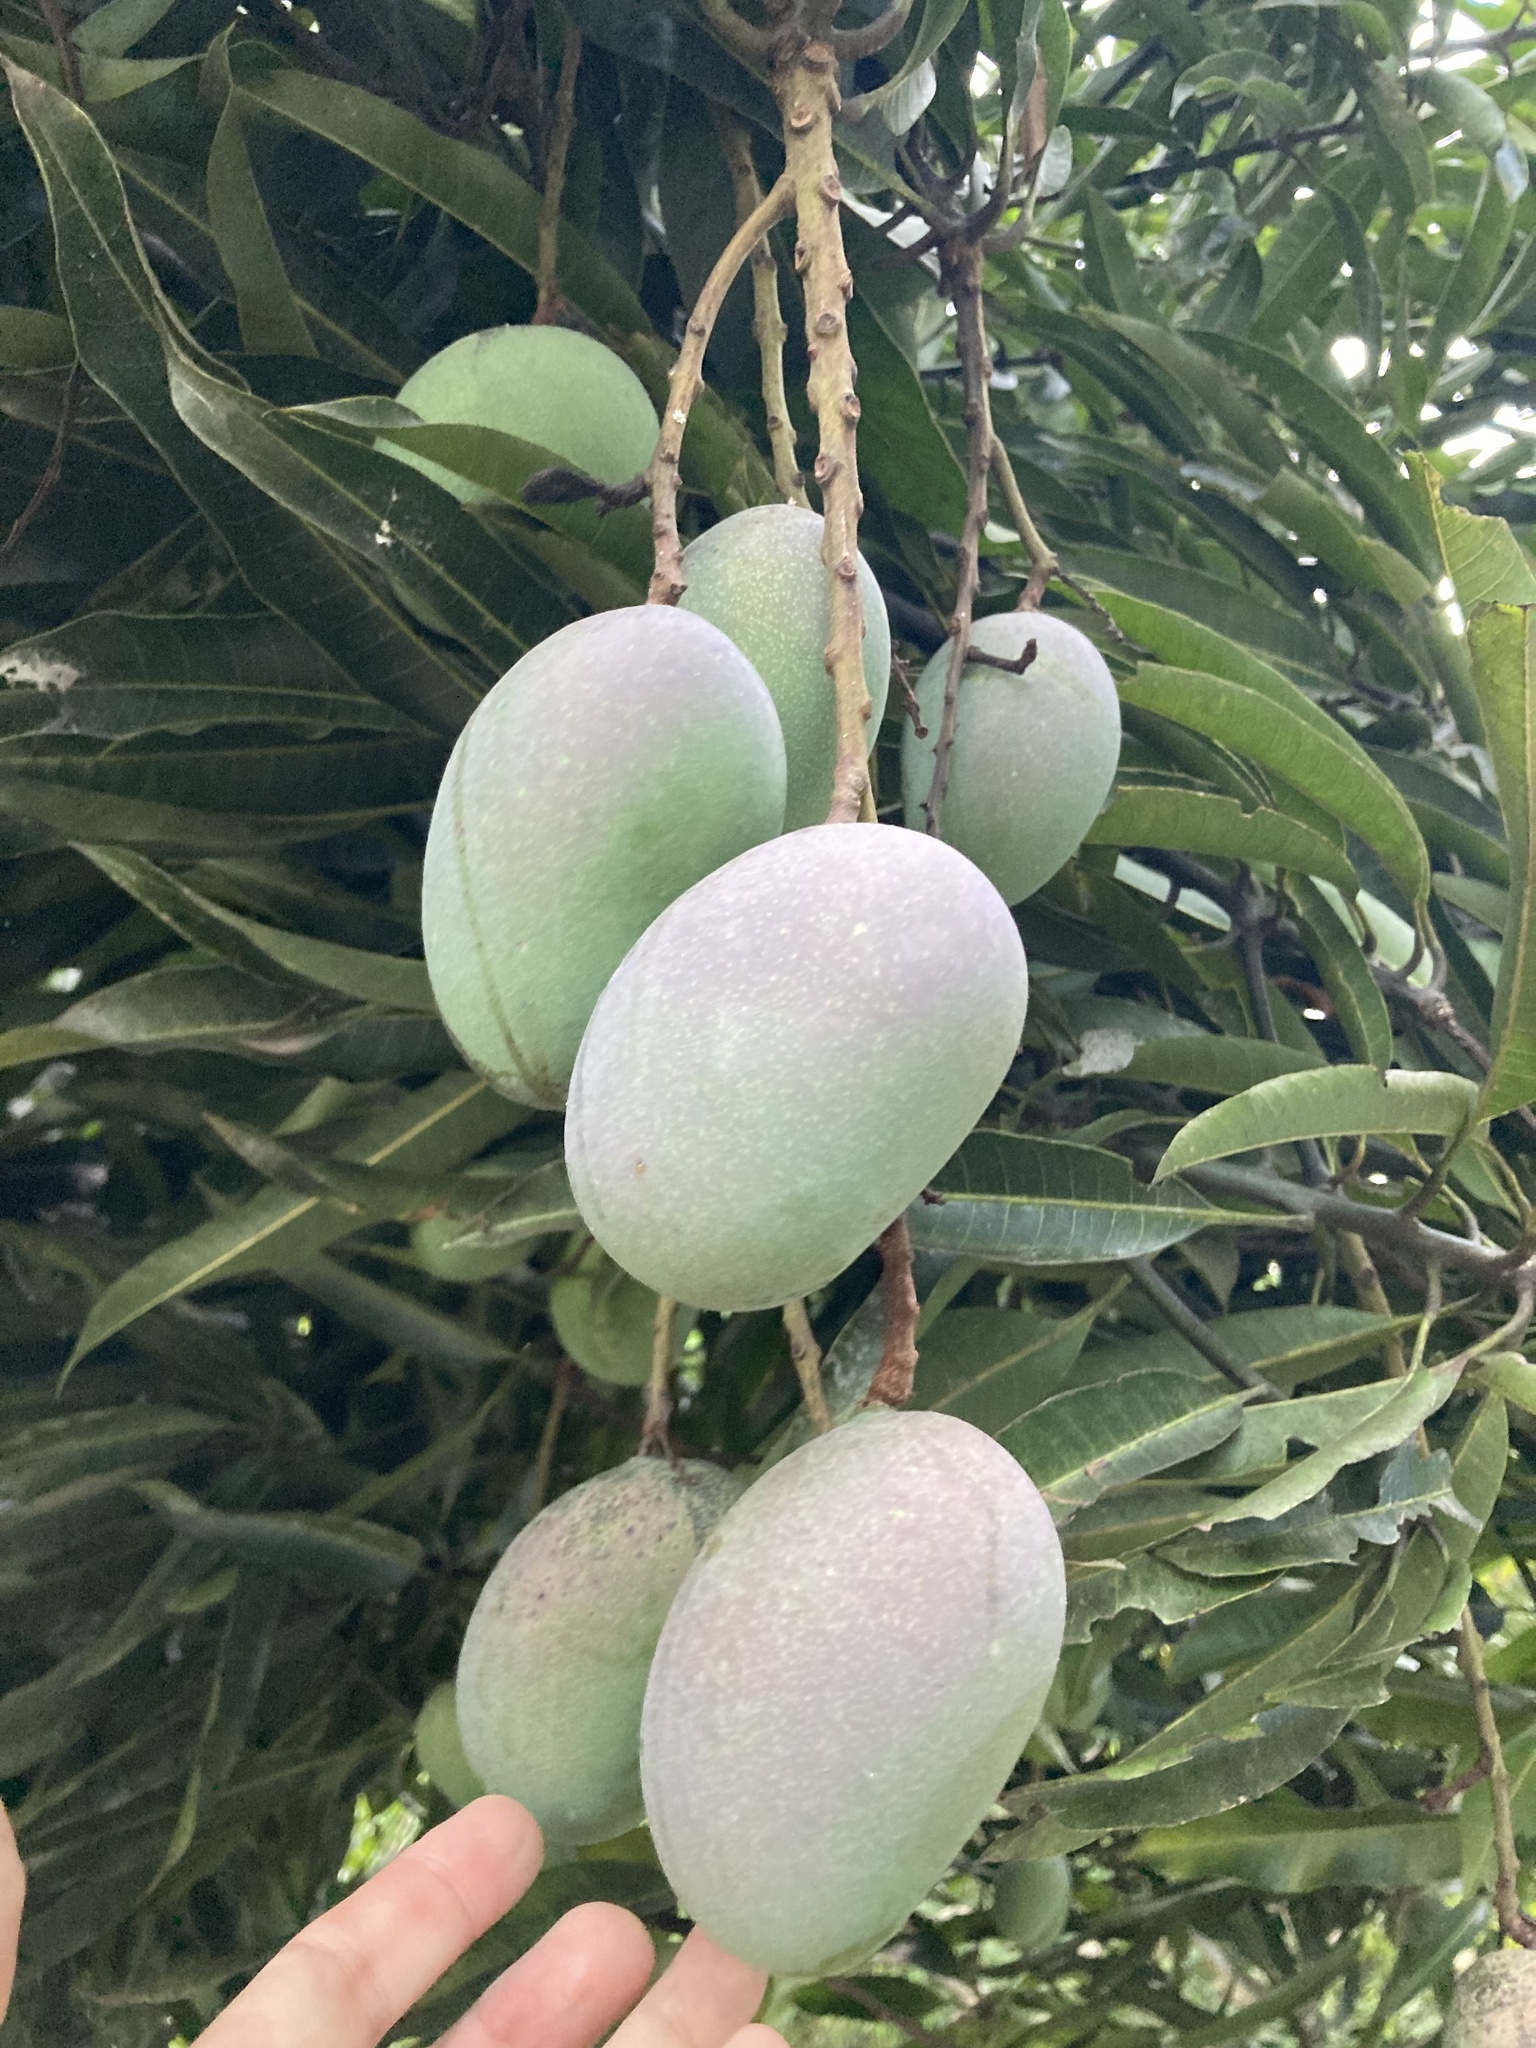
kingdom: Plantae
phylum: Tracheophyta
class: Magnoliopsida
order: Sapindales
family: Anacardiaceae
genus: Mangifera
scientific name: Mangifera indica
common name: Mango
